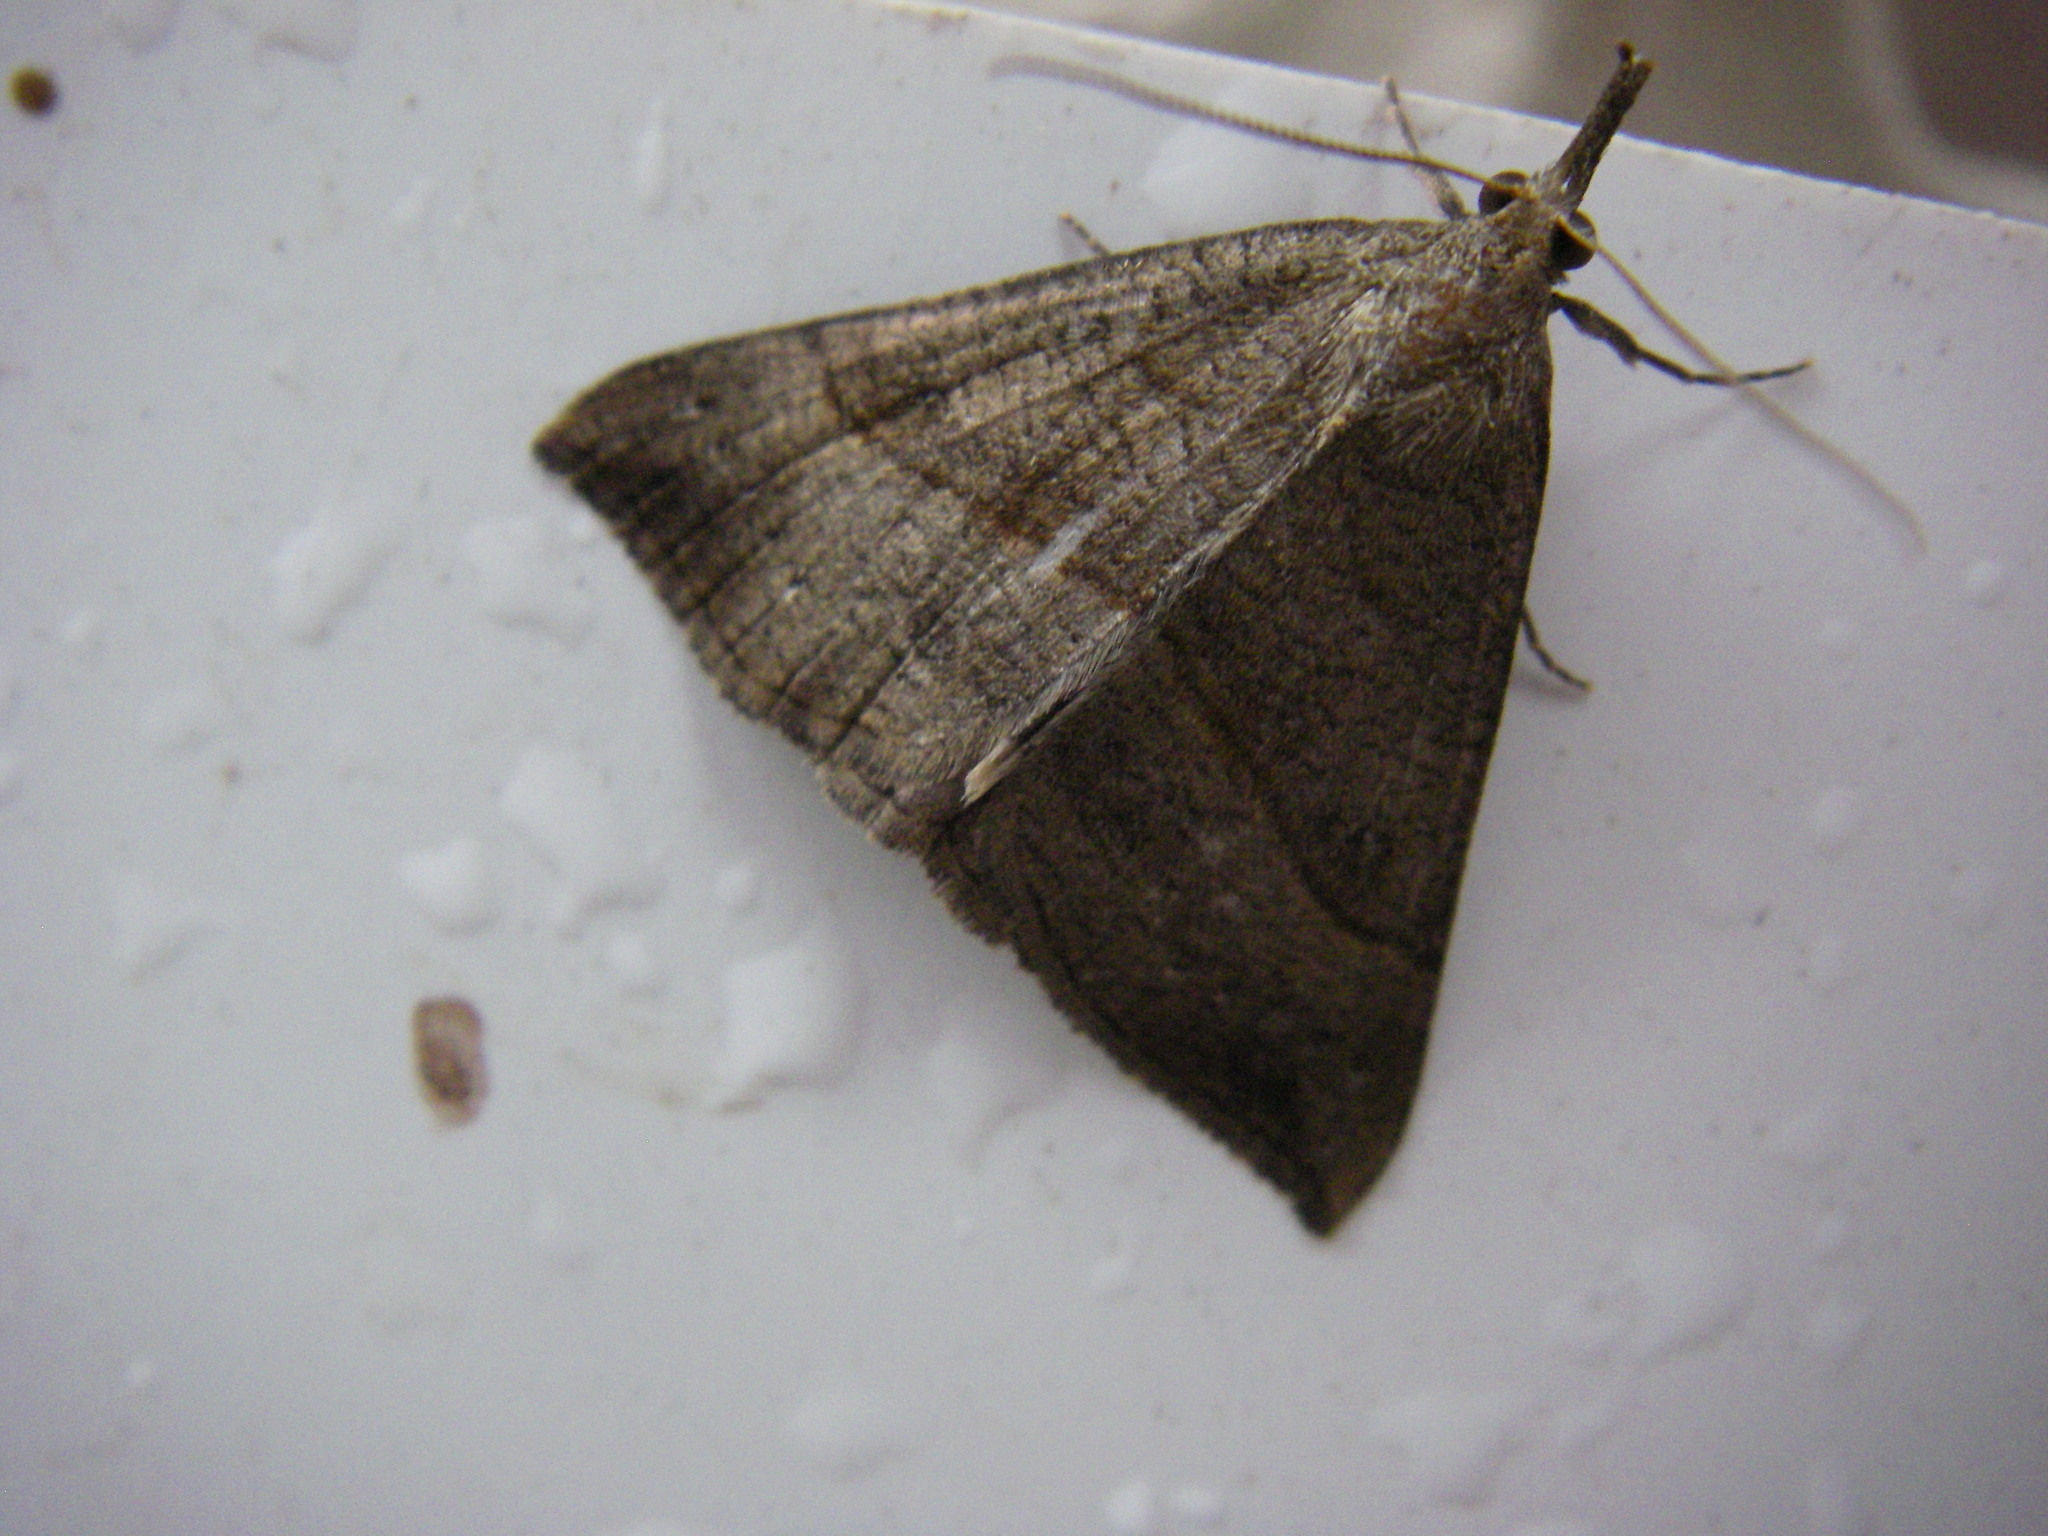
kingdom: Animalia
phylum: Arthropoda
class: Insecta
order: Lepidoptera
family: Erebidae
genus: Hypena
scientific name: Hypena proboscidalis
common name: Snout
